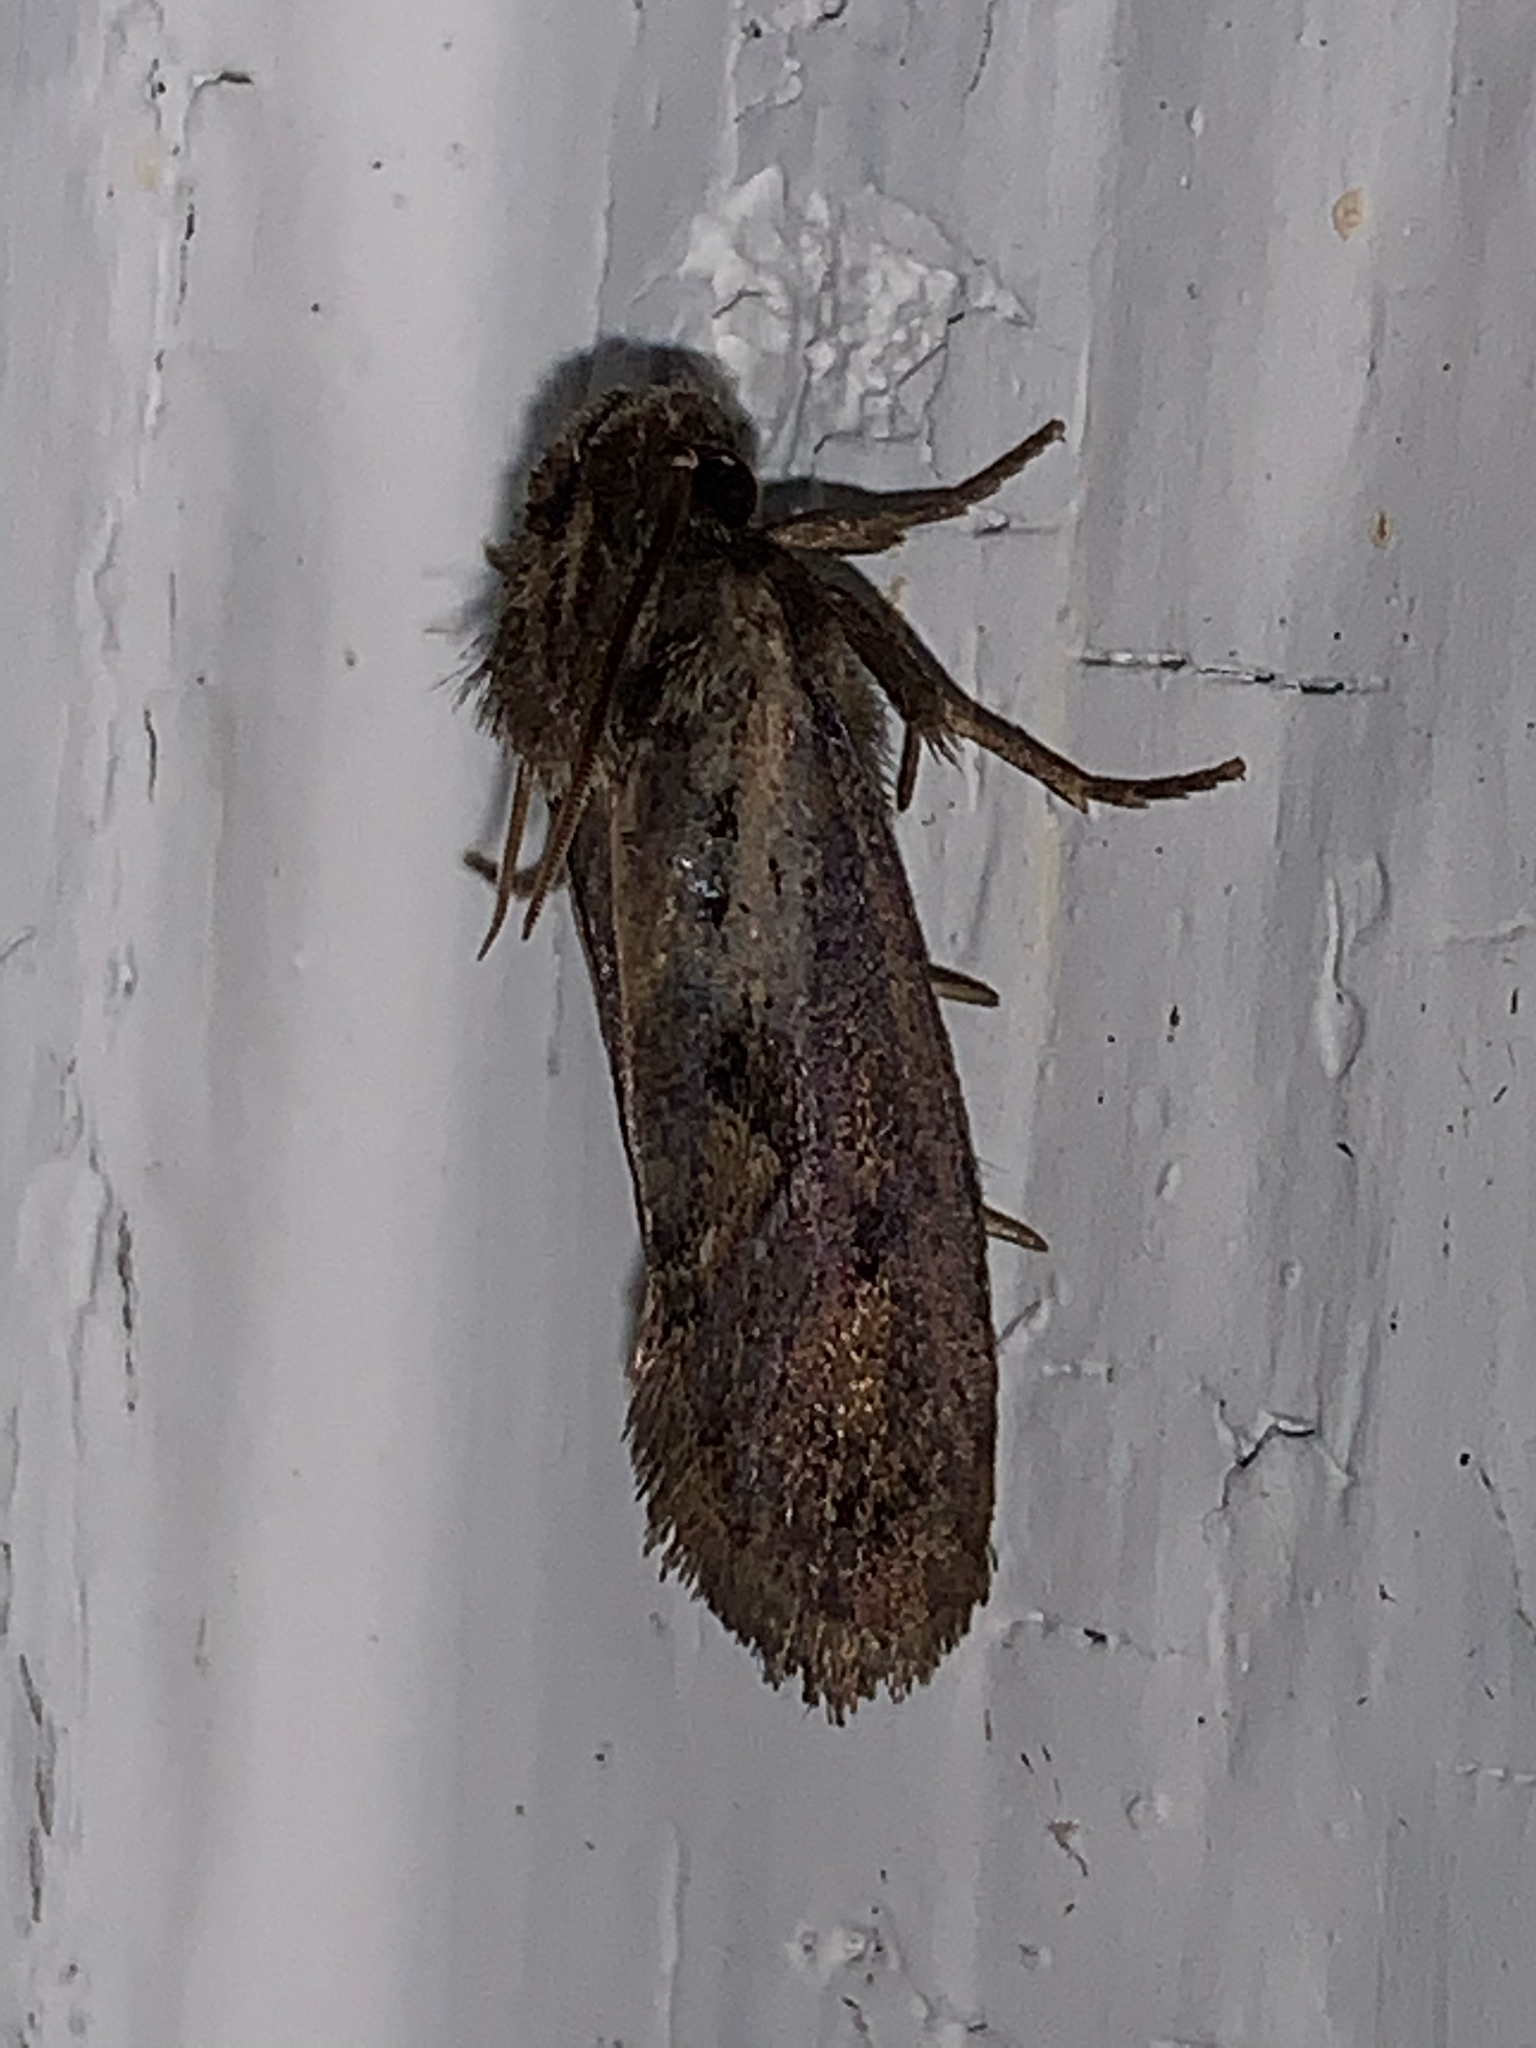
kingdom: Animalia
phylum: Arthropoda
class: Insecta
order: Lepidoptera
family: Tineidae
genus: Acrolophus
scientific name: Acrolophus popeanella
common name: Clemens' grass tubeworm moth
